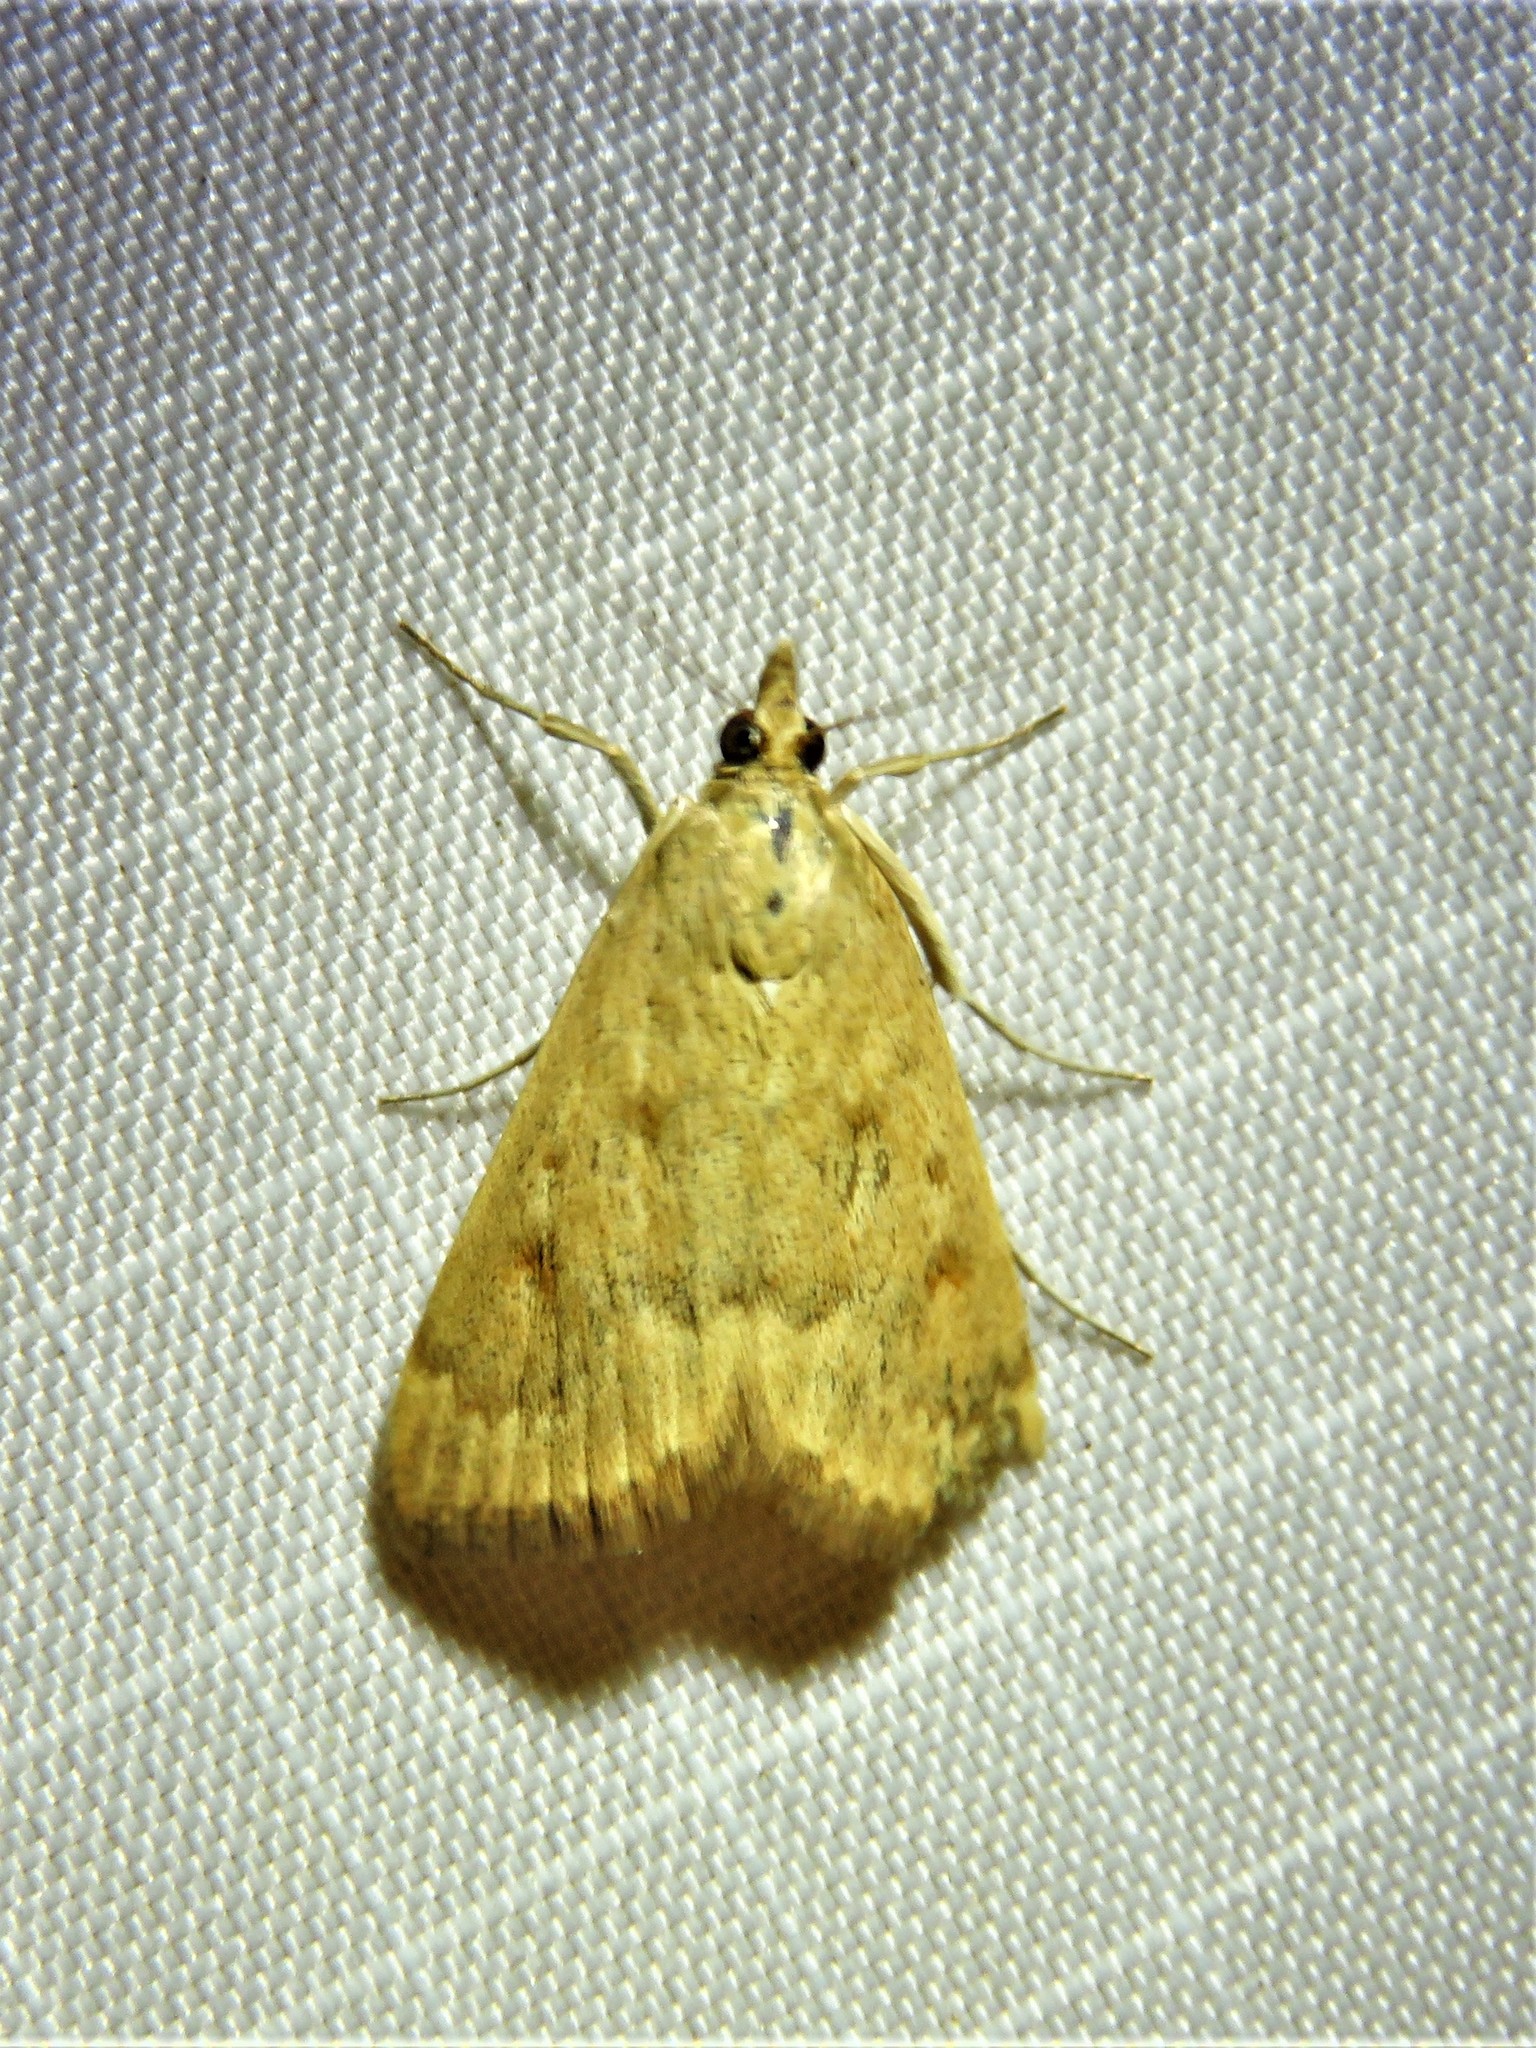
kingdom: Animalia
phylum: Arthropoda
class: Insecta
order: Lepidoptera
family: Crambidae
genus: Achyra
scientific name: Achyra rantalis
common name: Garden webworm
